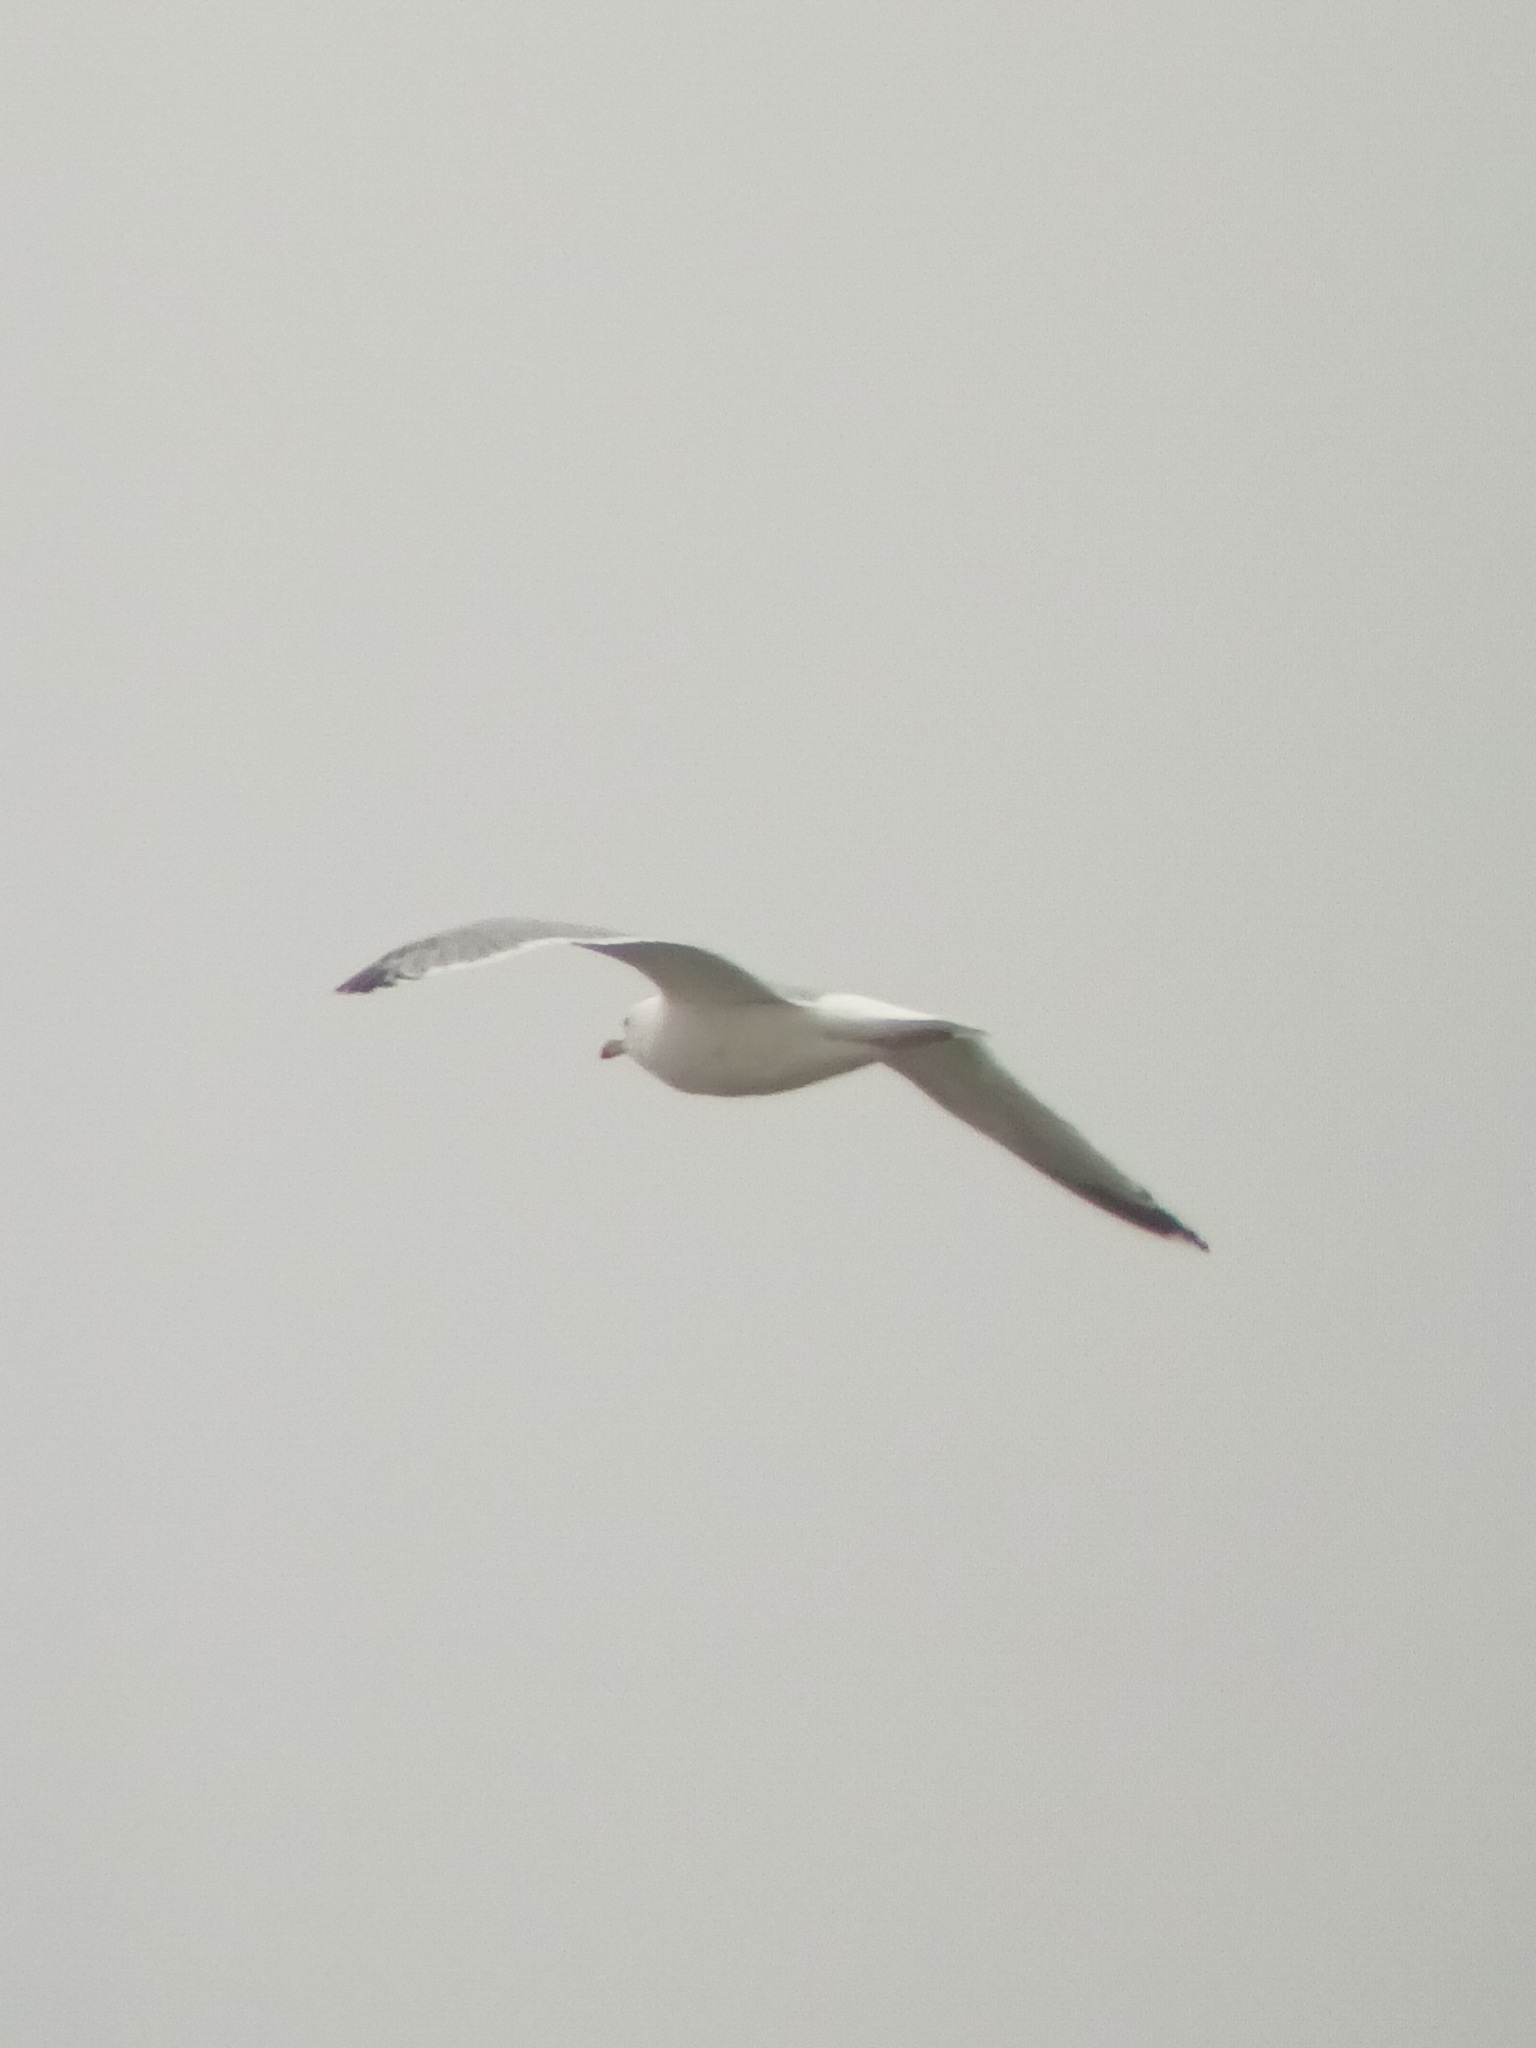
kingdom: Animalia
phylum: Chordata
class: Aves
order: Charadriiformes
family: Laridae
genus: Larus
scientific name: Larus argentatus
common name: Herring gull
